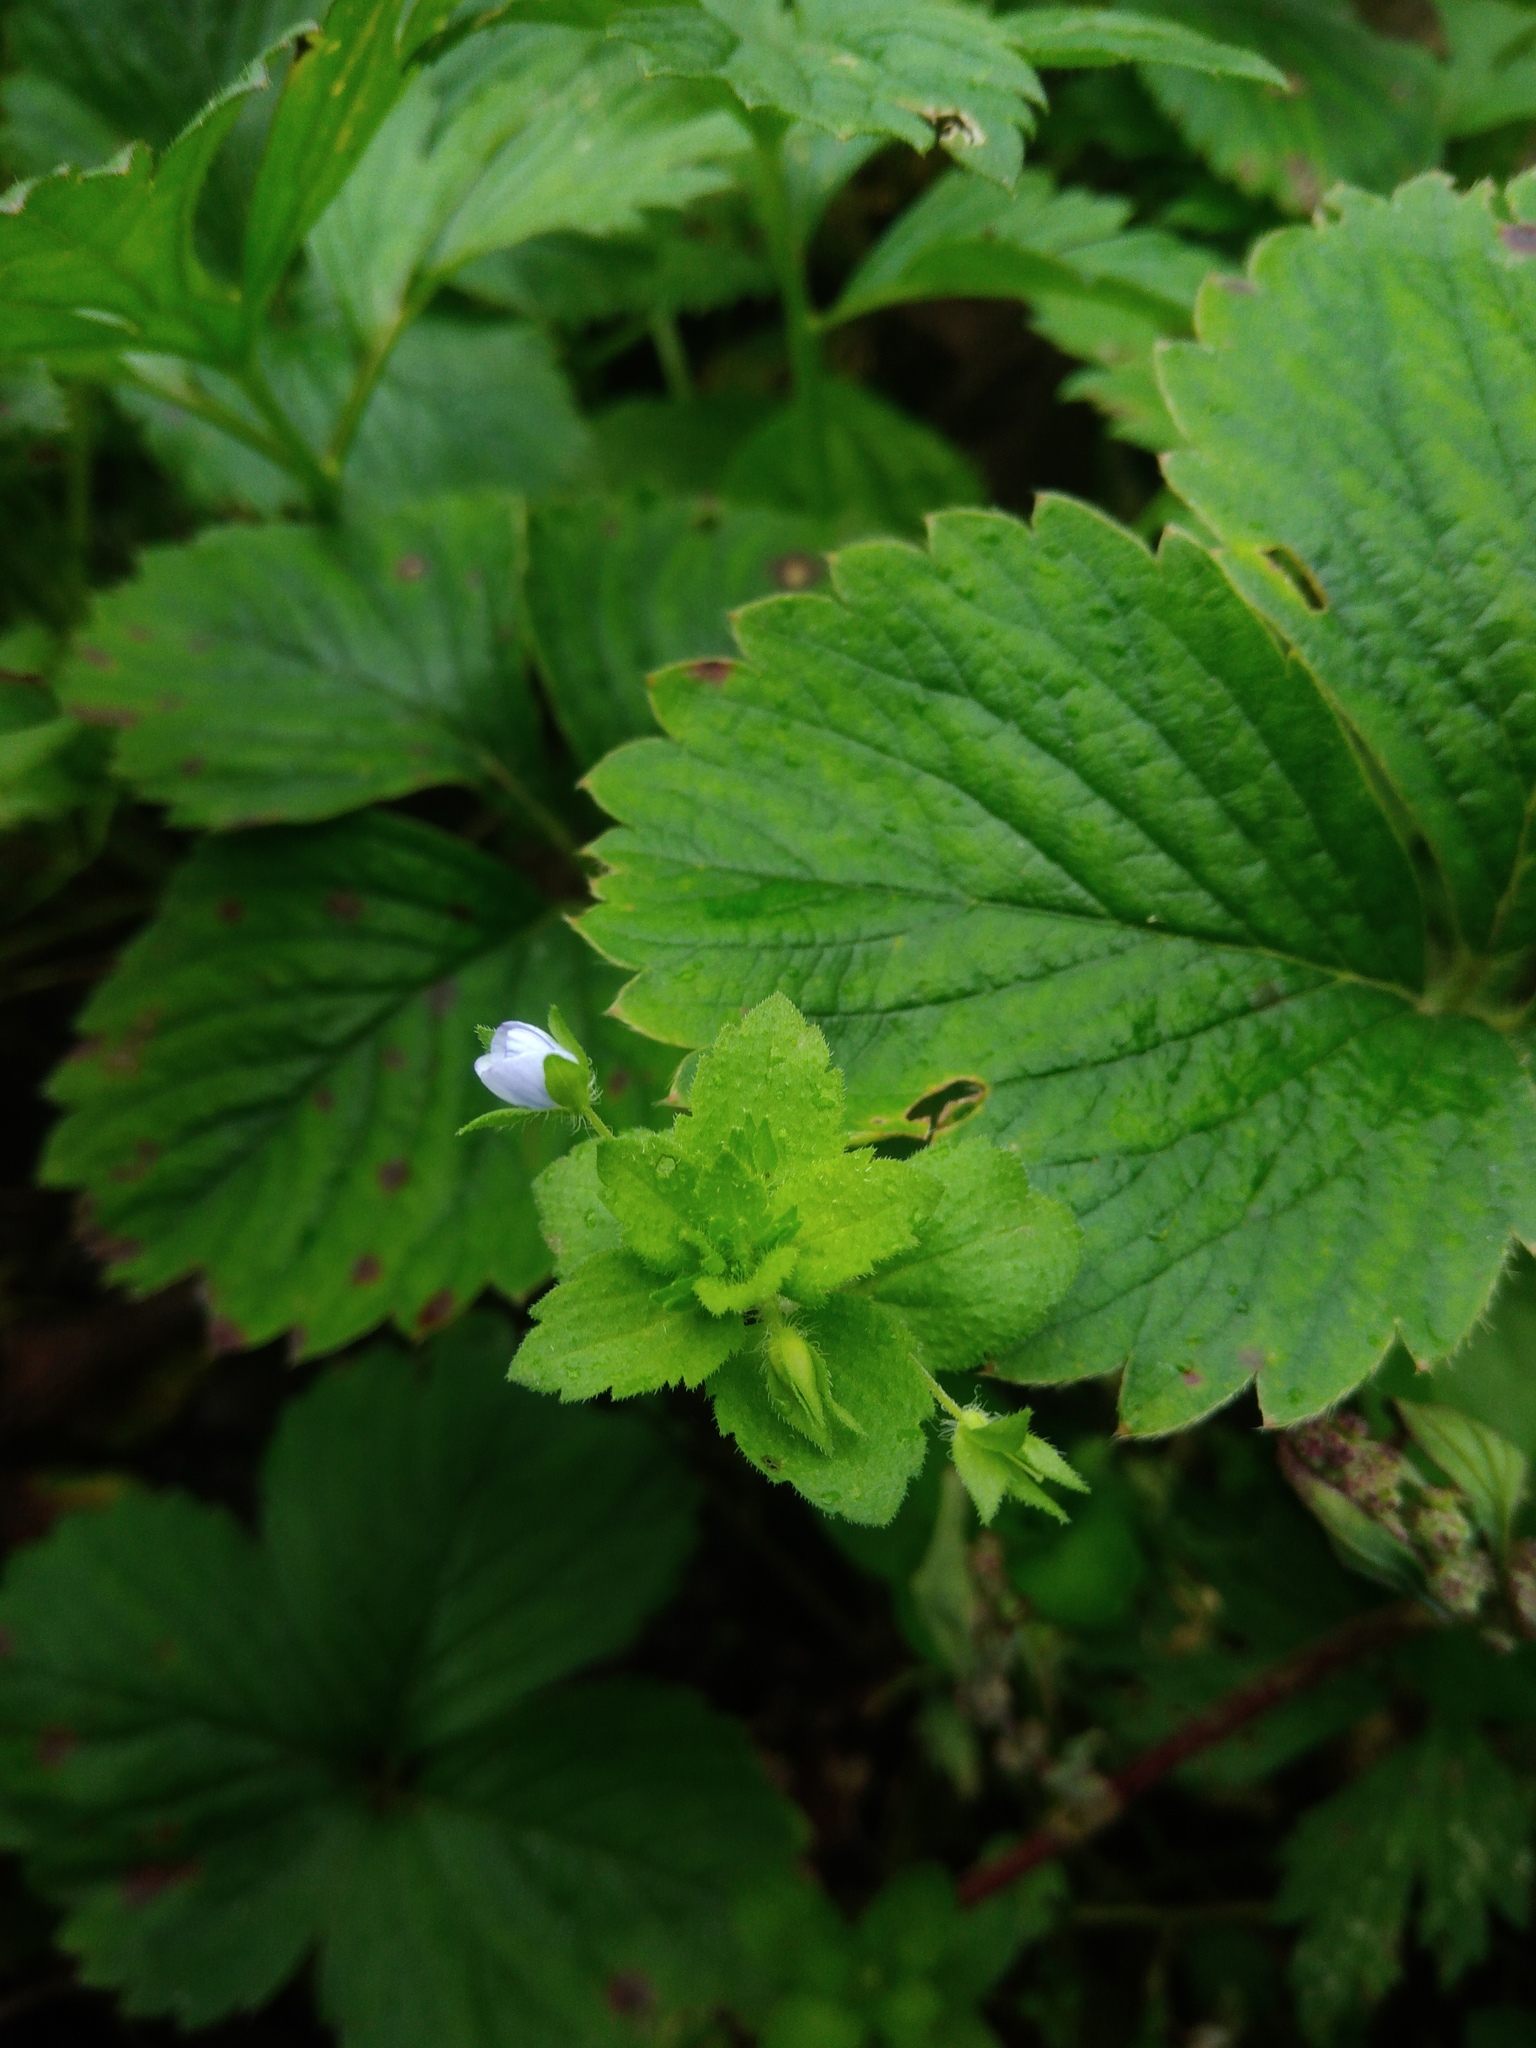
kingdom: Plantae
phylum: Tracheophyta
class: Magnoliopsida
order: Lamiales
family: Plantaginaceae
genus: Veronica
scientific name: Veronica persica
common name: Common field-speedwell
